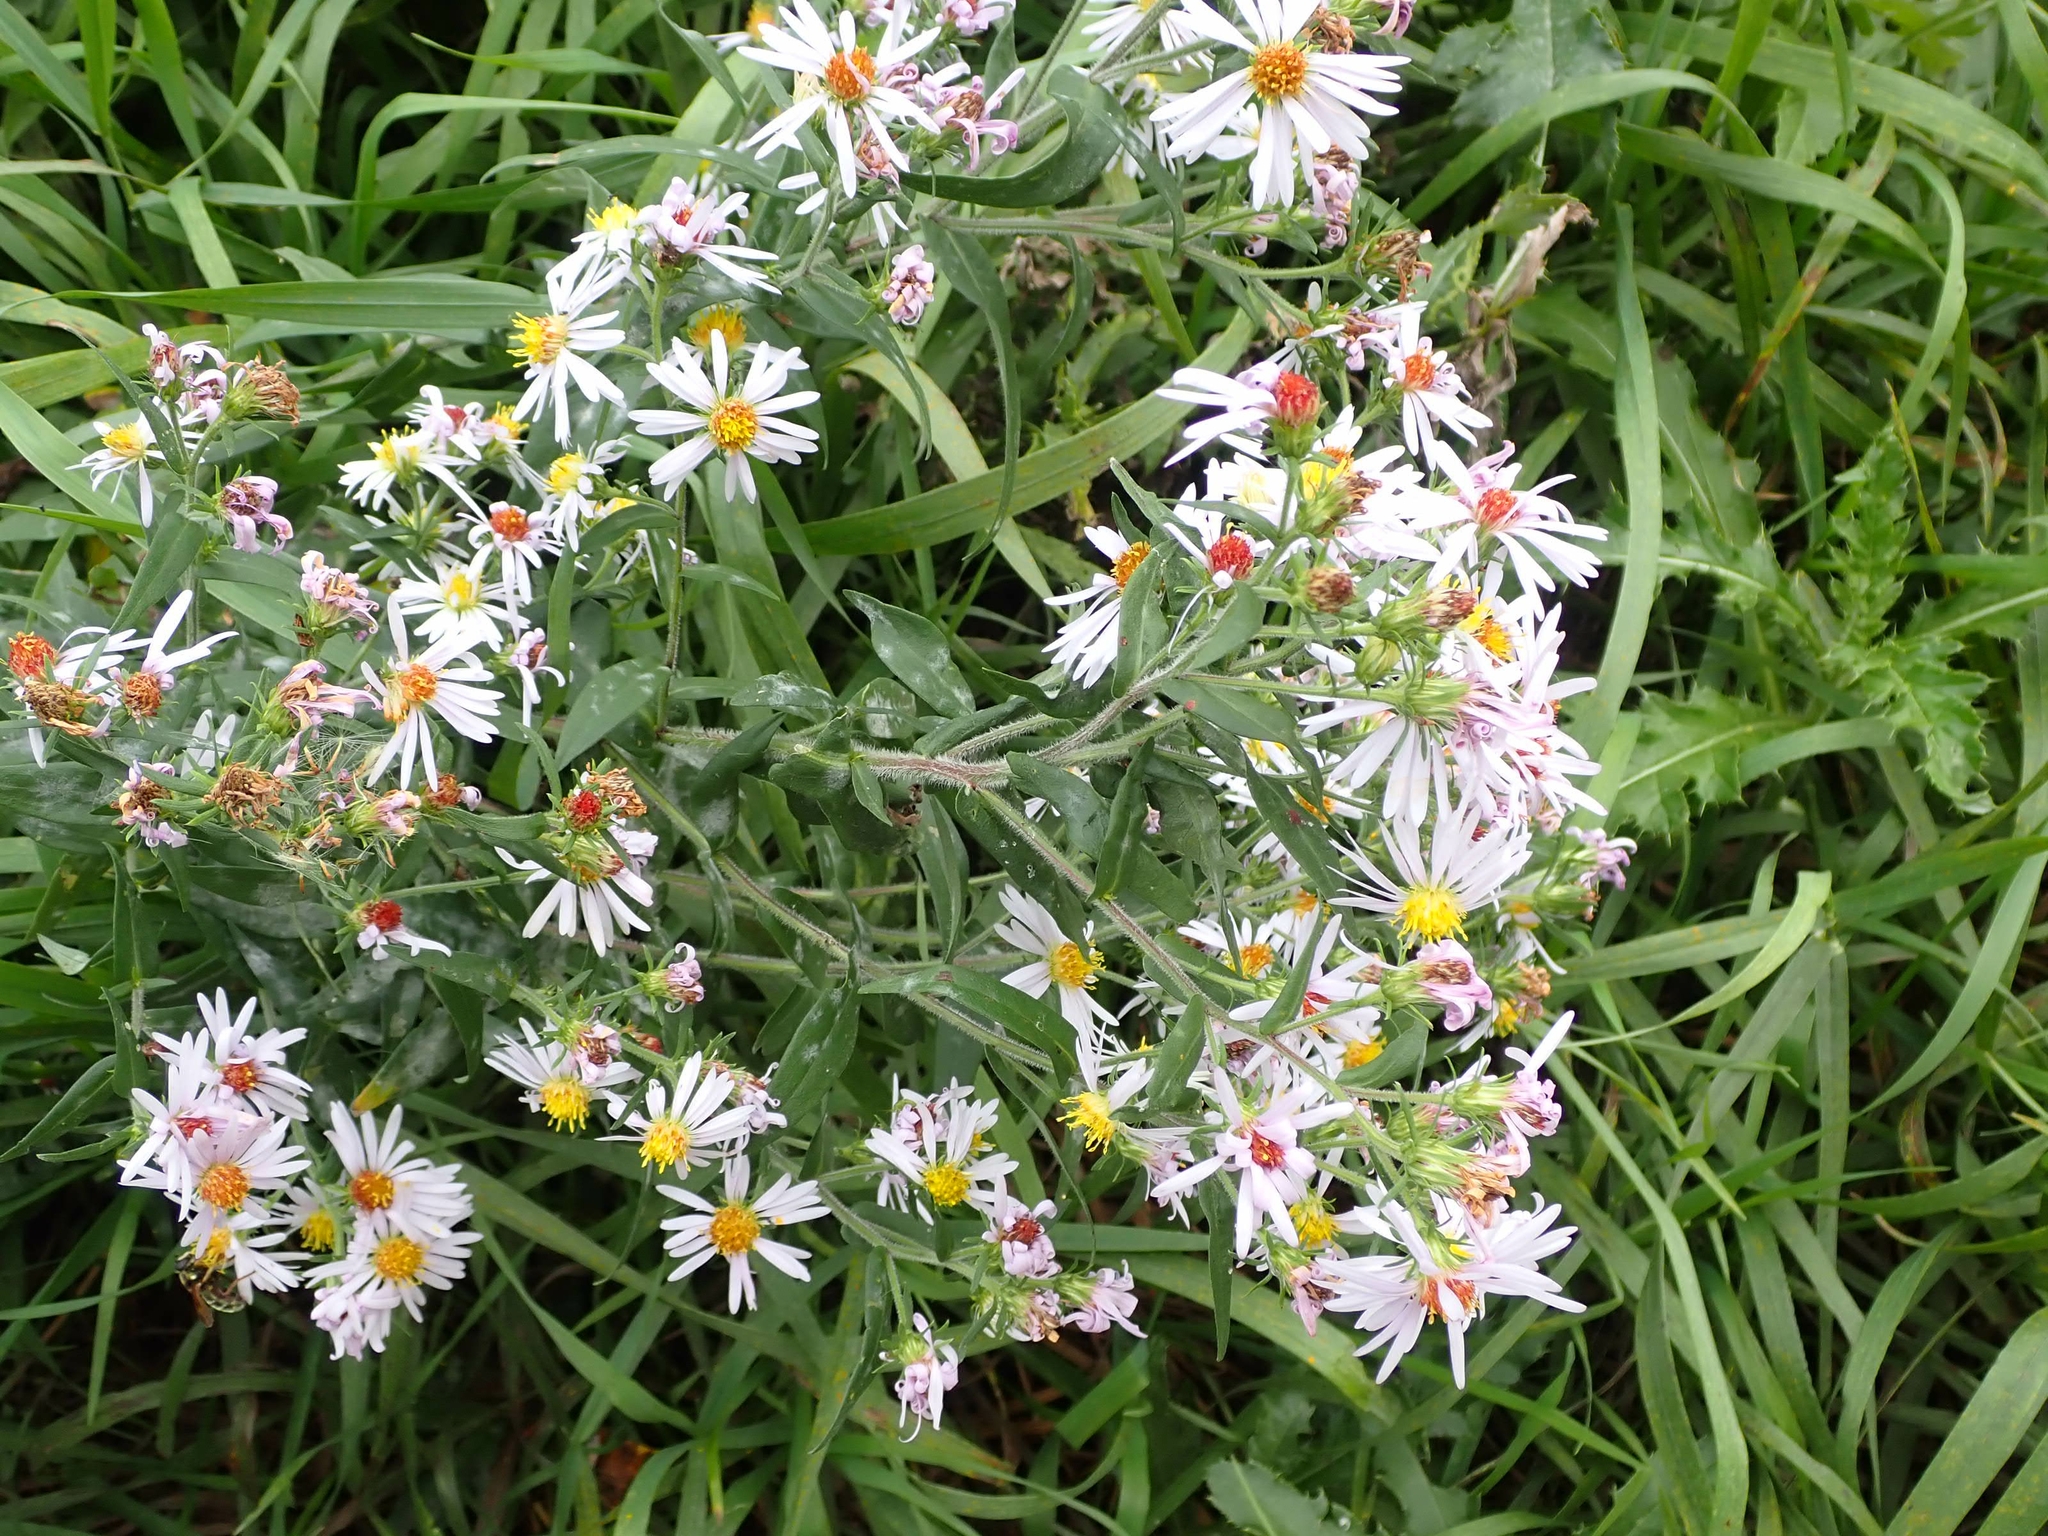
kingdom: Plantae
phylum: Tracheophyta
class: Magnoliopsida
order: Asterales
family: Asteraceae
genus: Symphyotrichum
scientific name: Symphyotrichum puniceum
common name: Bog aster
